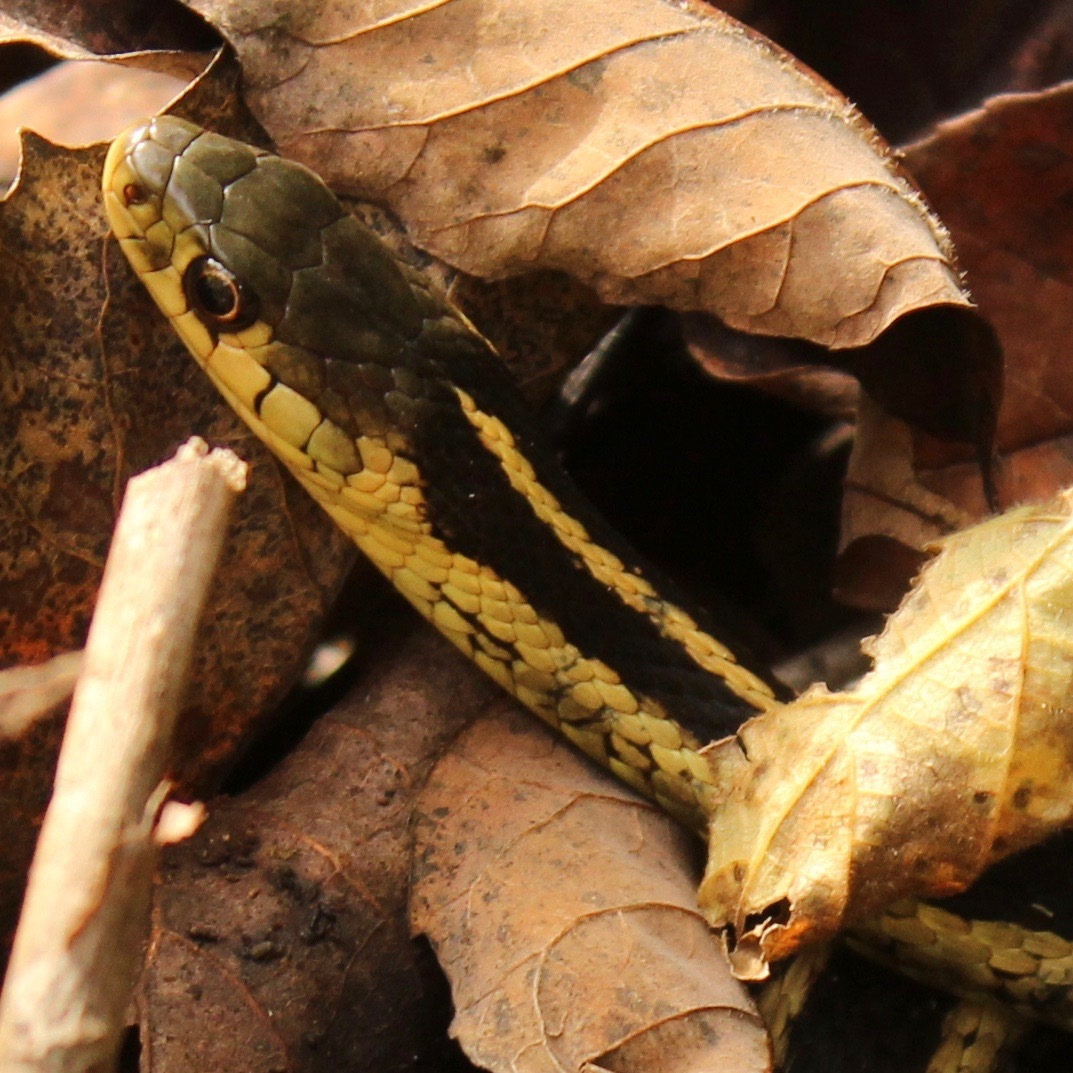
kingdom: Animalia
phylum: Chordata
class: Squamata
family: Colubridae
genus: Thamnophis
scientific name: Thamnophis sirtalis
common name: Common garter snake
